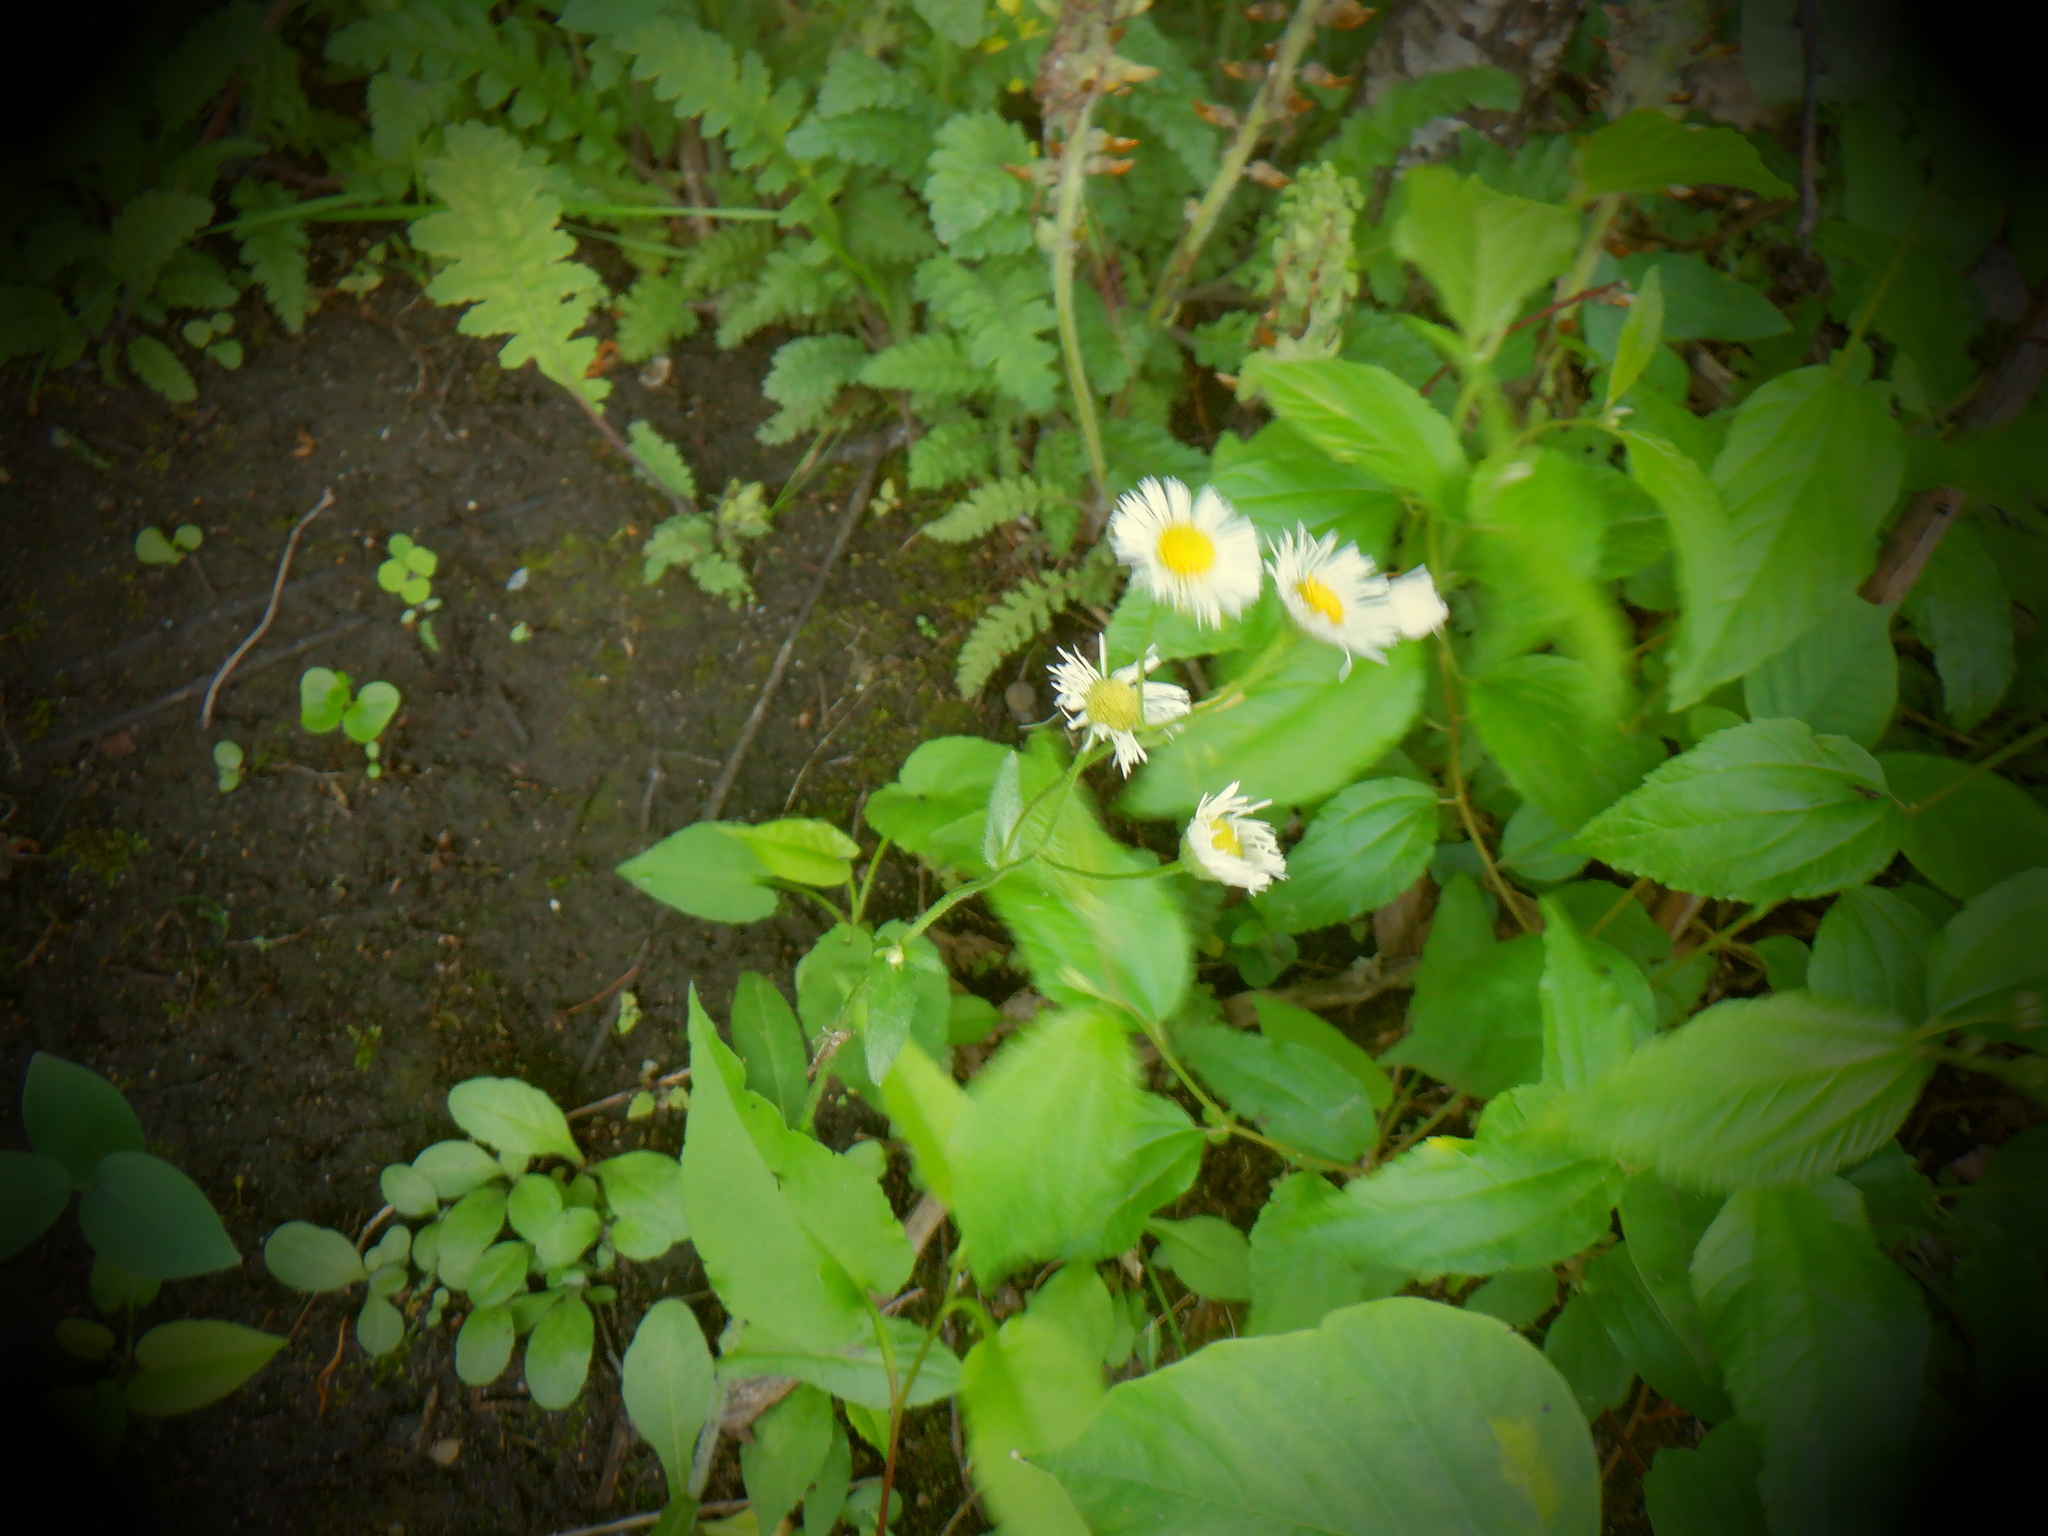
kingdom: Plantae
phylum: Tracheophyta
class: Magnoliopsida
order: Asterales
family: Asteraceae
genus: Erigeron
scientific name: Erigeron philadelphicus
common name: Robin's-plantain
